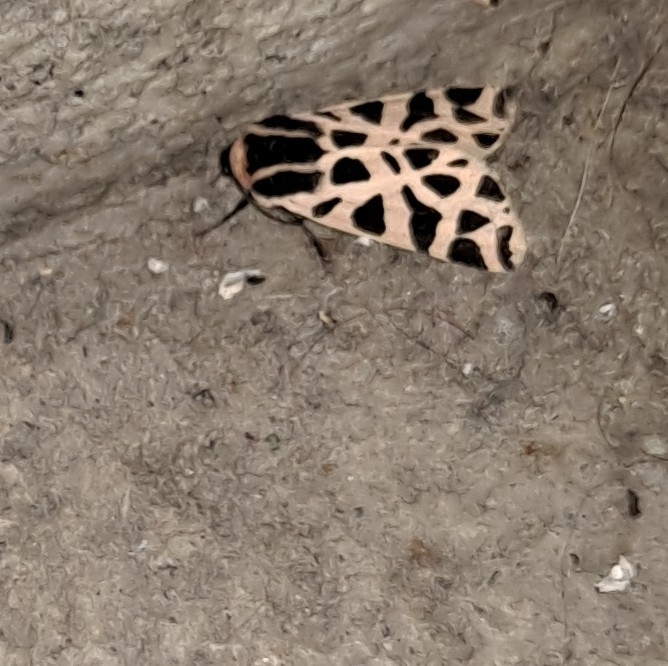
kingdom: Animalia
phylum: Arthropoda
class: Insecta
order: Lepidoptera
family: Erebidae
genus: Cymbalophora
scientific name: Cymbalophora pudica
